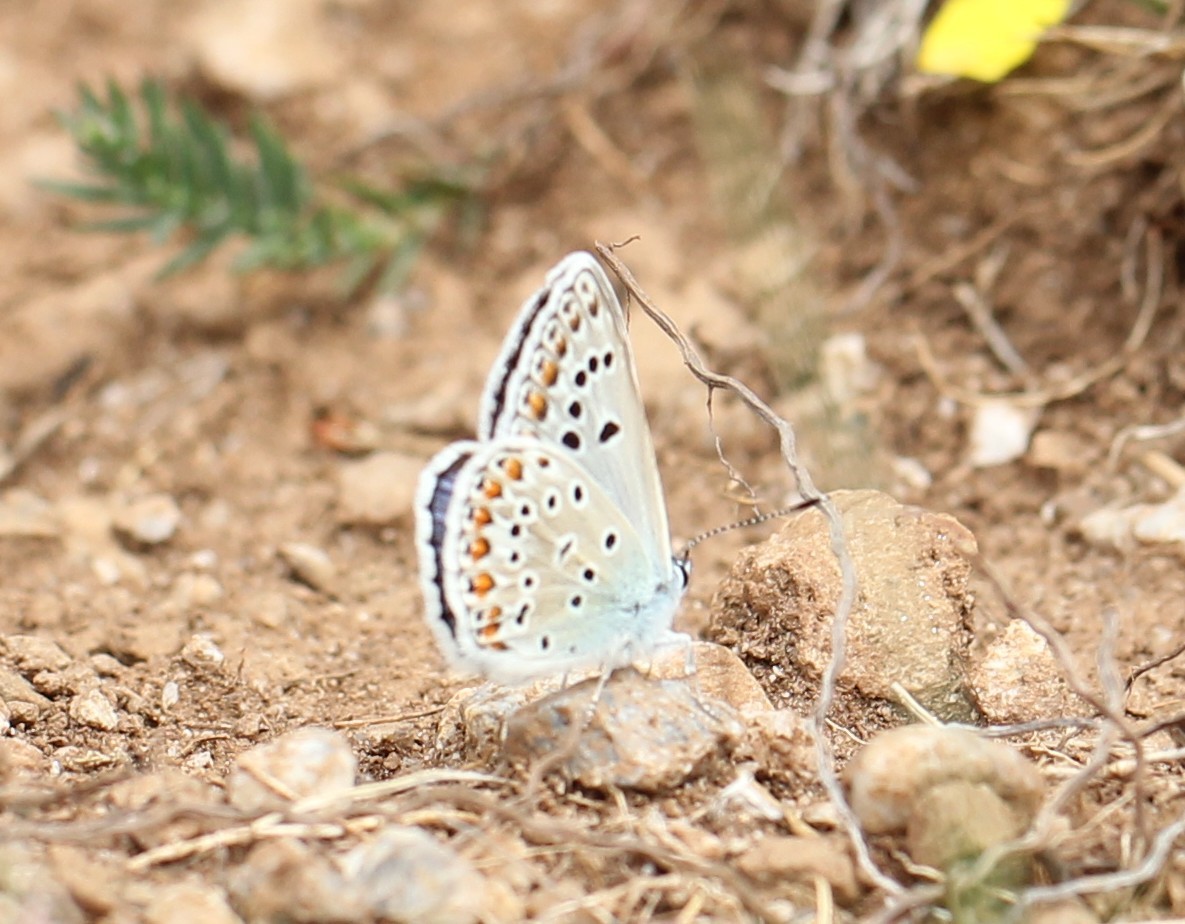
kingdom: Animalia
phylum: Arthropoda
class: Insecta
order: Lepidoptera
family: Lycaenidae
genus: Plebicula
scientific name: Plebicula escheri
